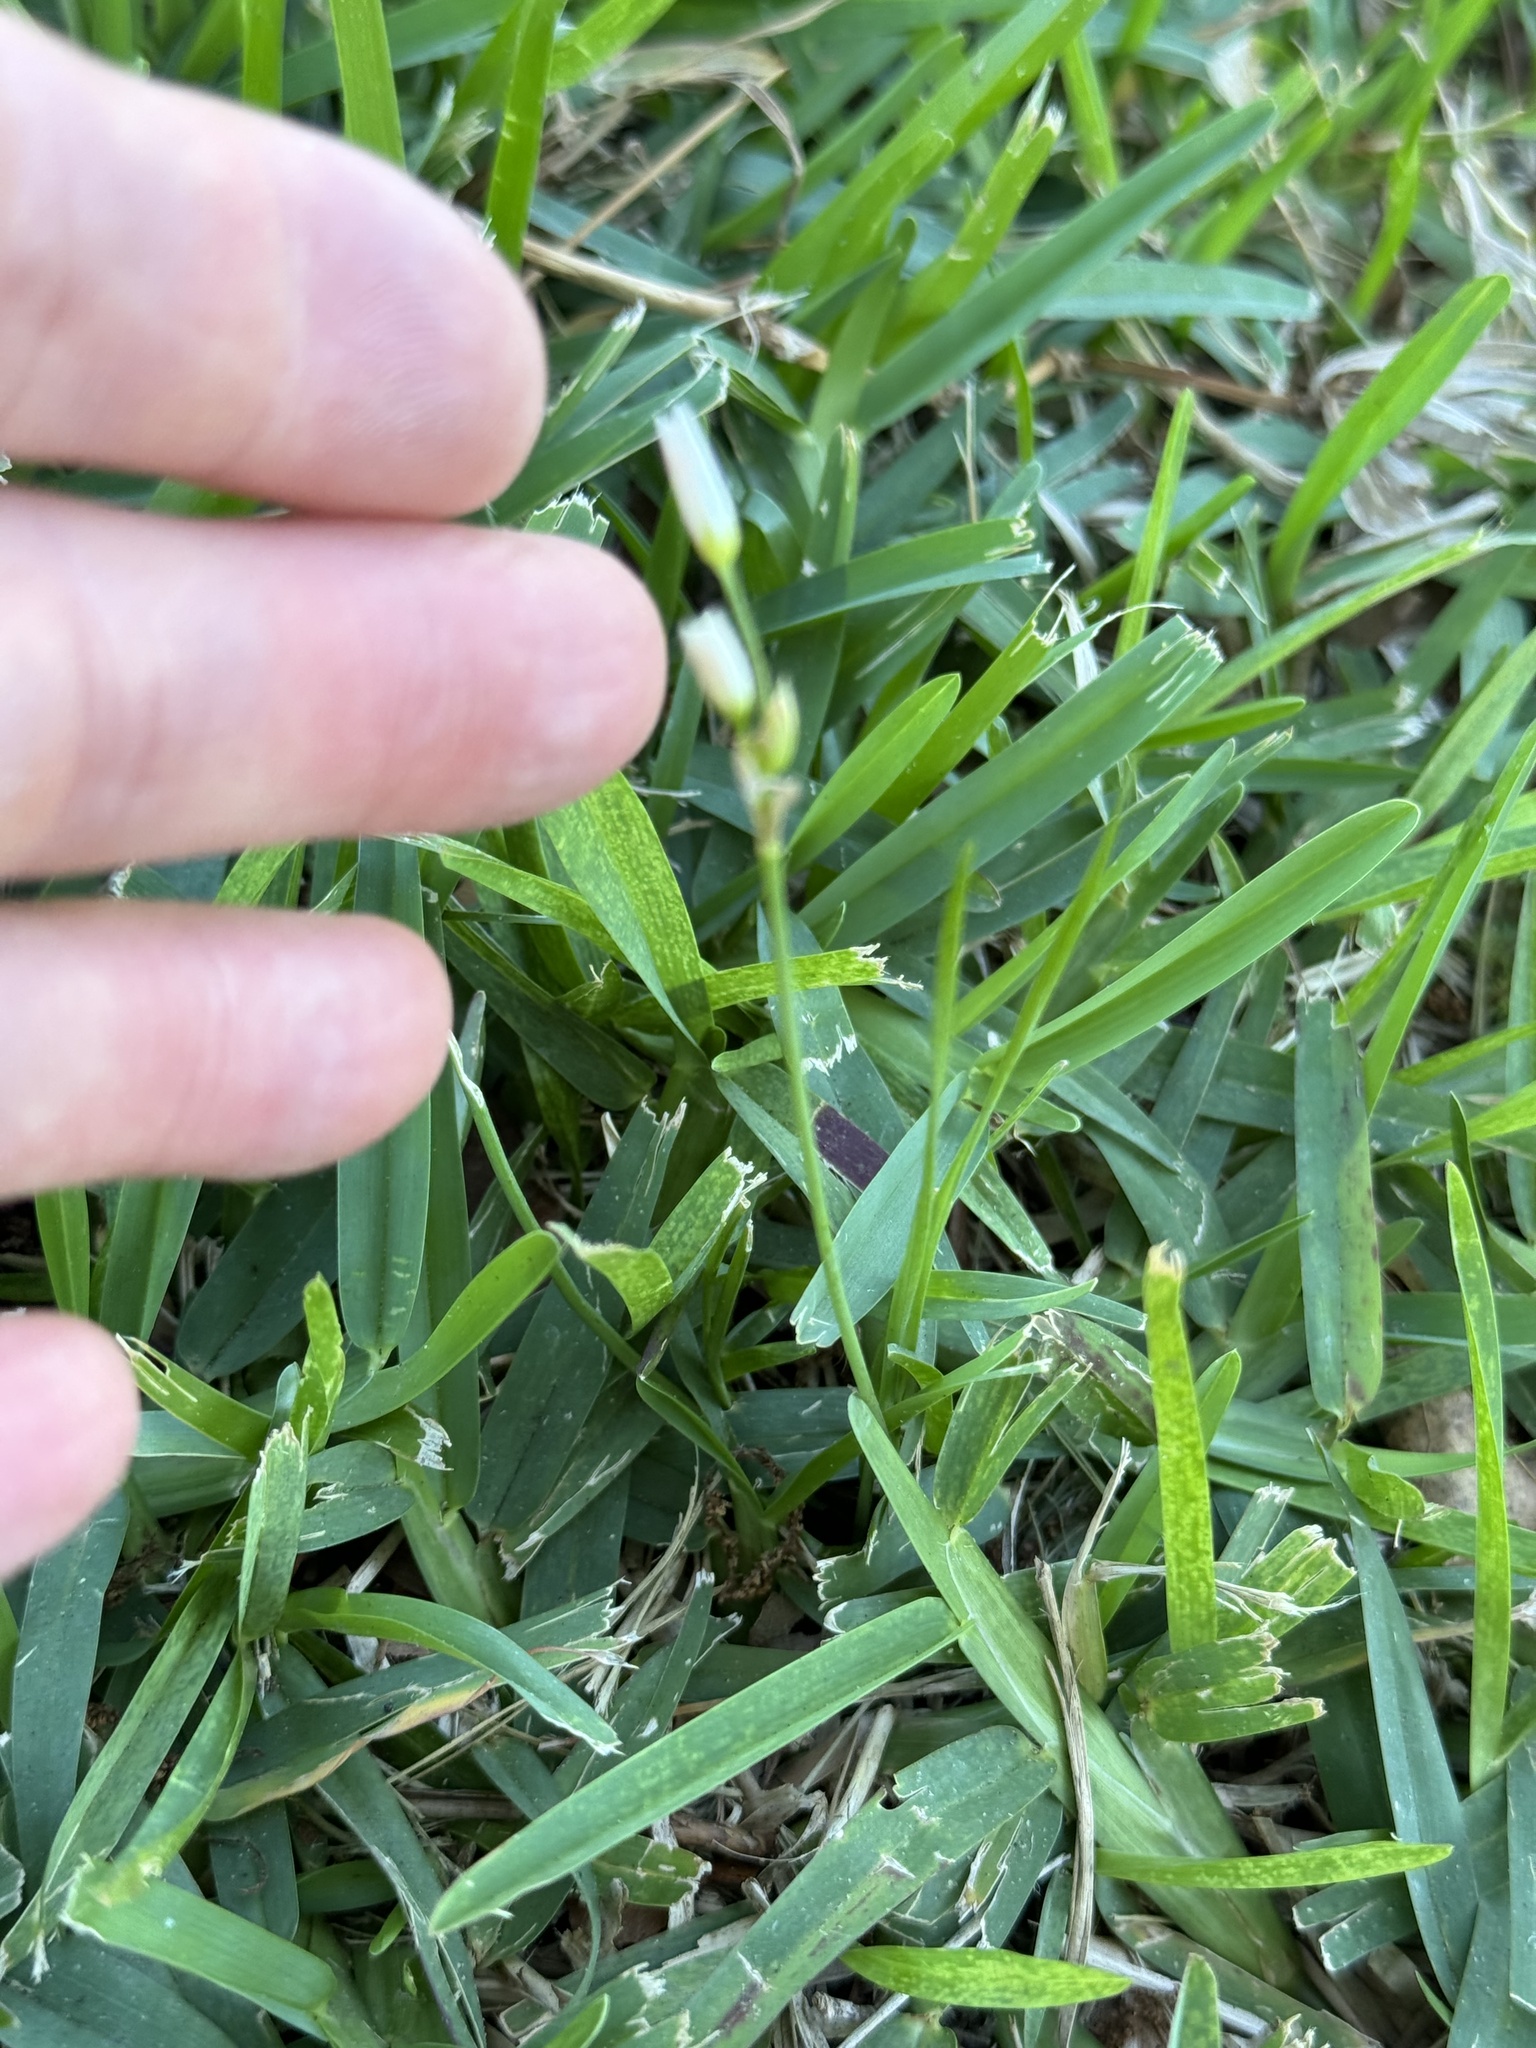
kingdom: Plantae
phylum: Tracheophyta
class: Liliopsida
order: Asparagales
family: Amaryllidaceae
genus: Nothoscordum
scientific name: Nothoscordum bivalve
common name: Crow-poison
